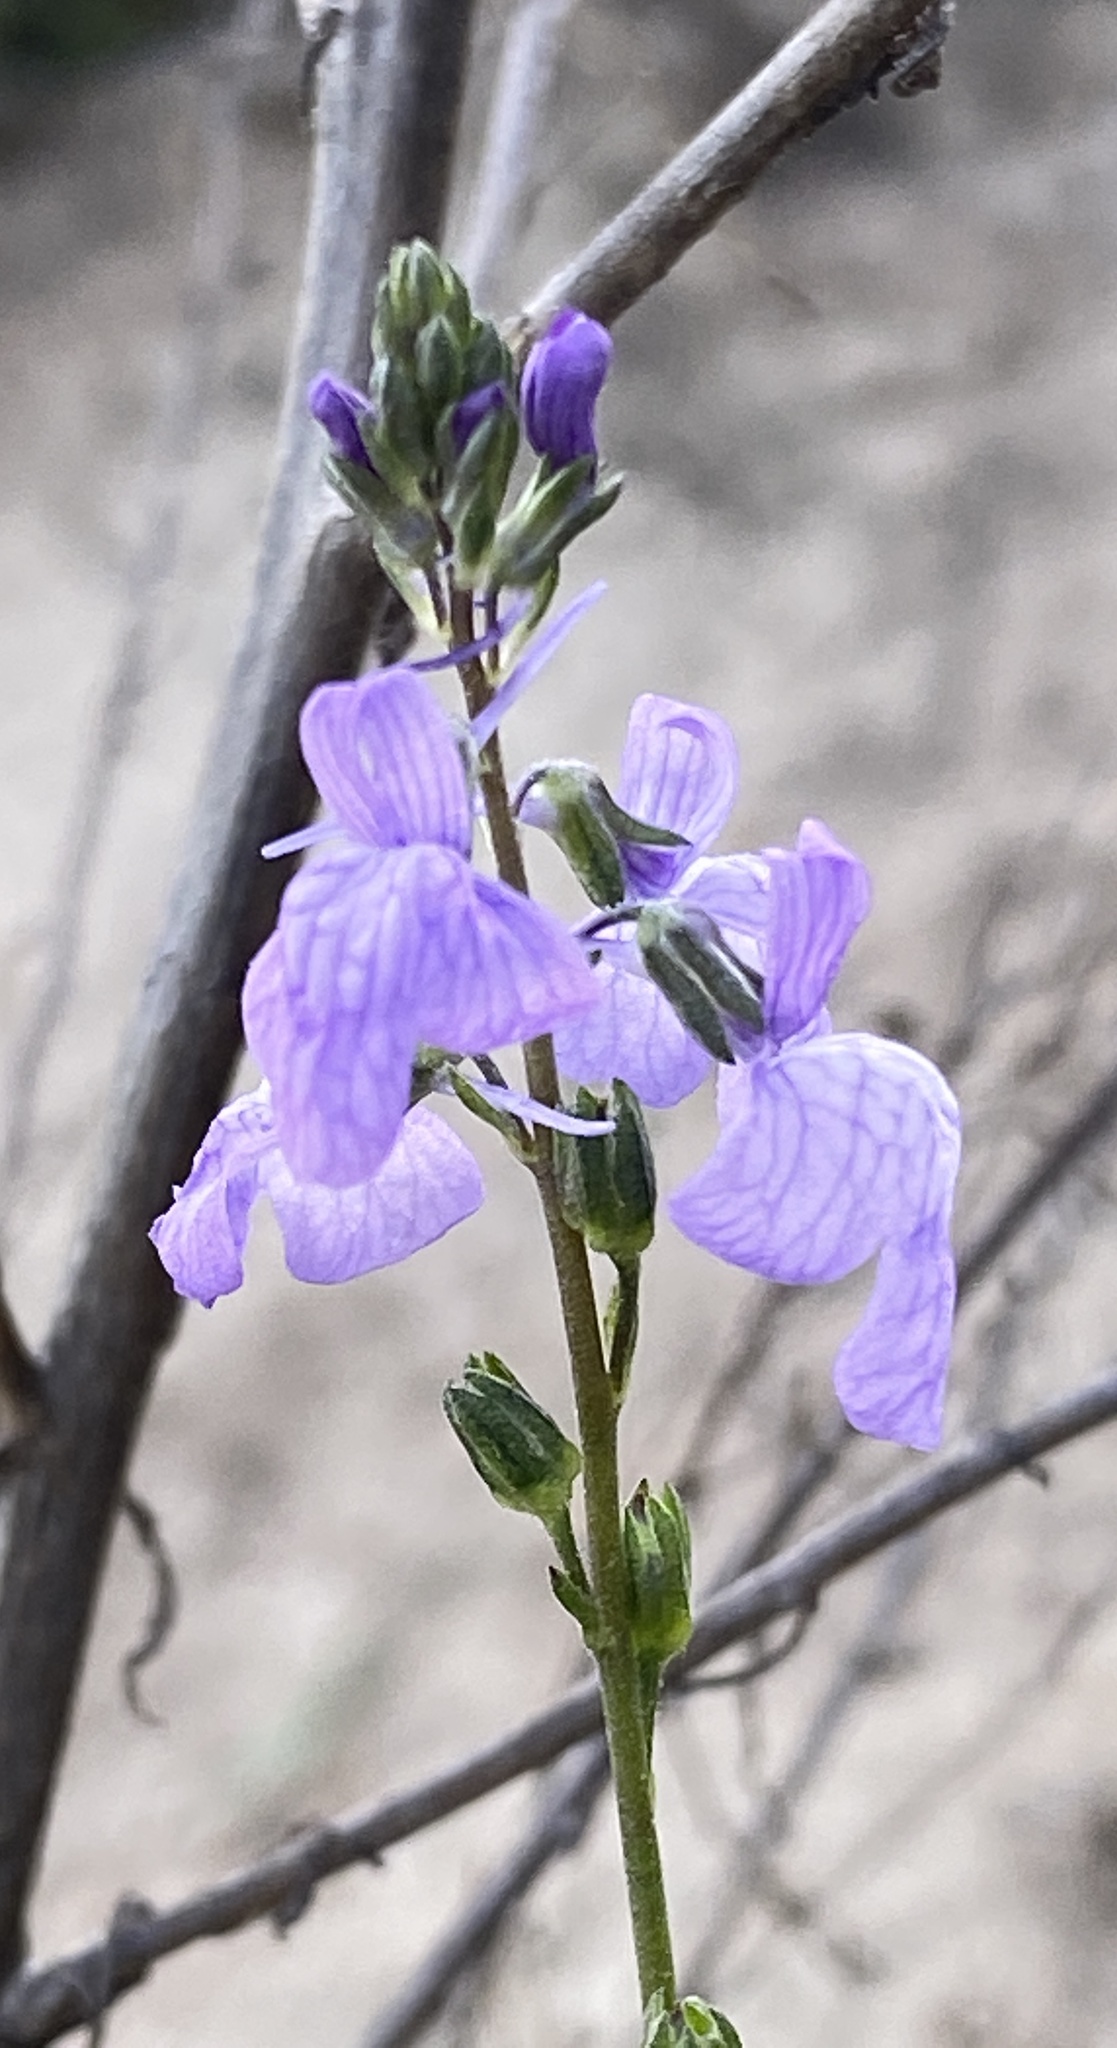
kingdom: Plantae
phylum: Tracheophyta
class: Magnoliopsida
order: Lamiales
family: Plantaginaceae
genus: Nuttallanthus
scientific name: Nuttallanthus texanus
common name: Texas toadflax
